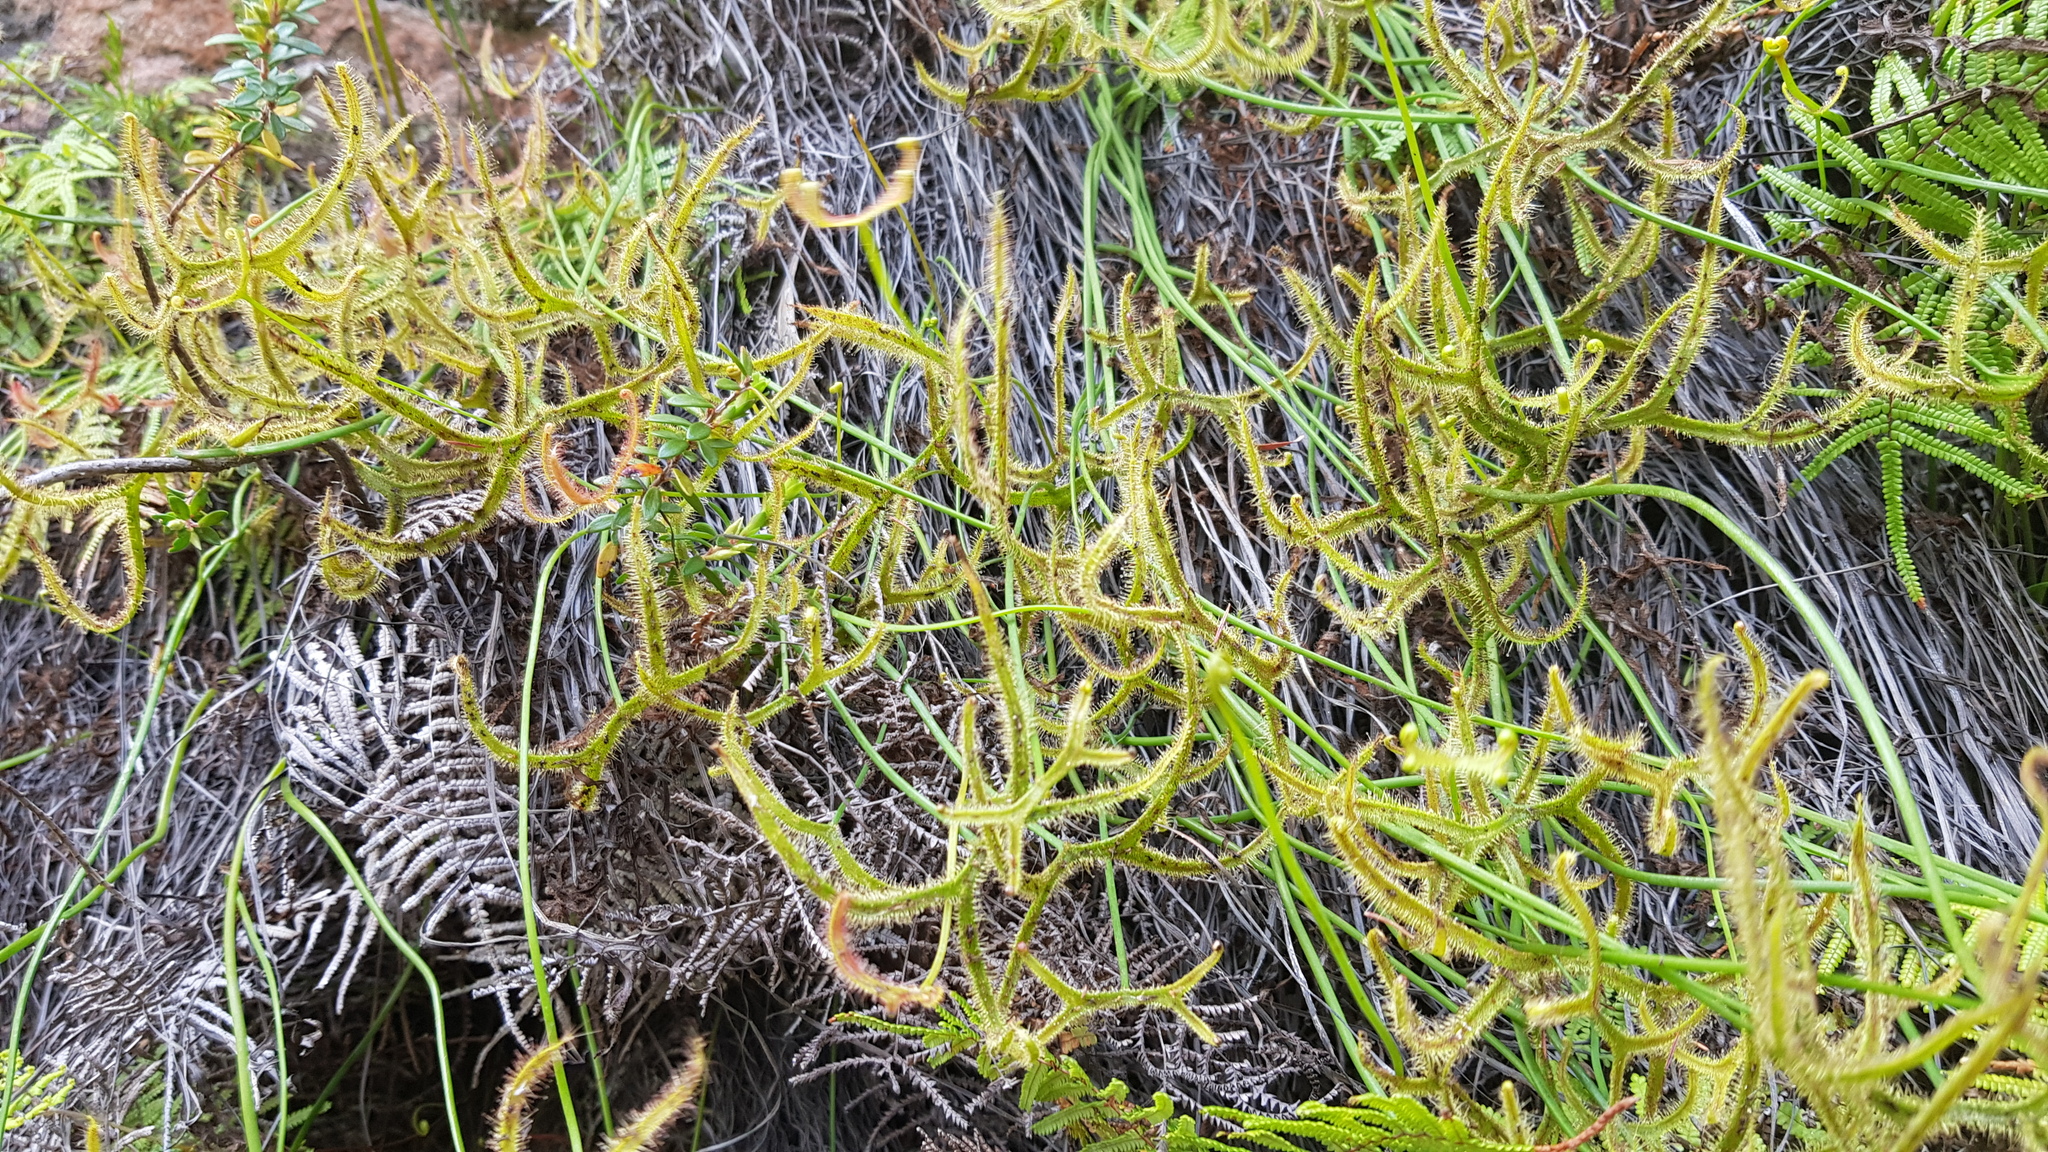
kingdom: Plantae
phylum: Tracheophyta
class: Magnoliopsida
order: Caryophyllales
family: Droseraceae
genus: Drosera
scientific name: Drosera binata
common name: Forked sundew
